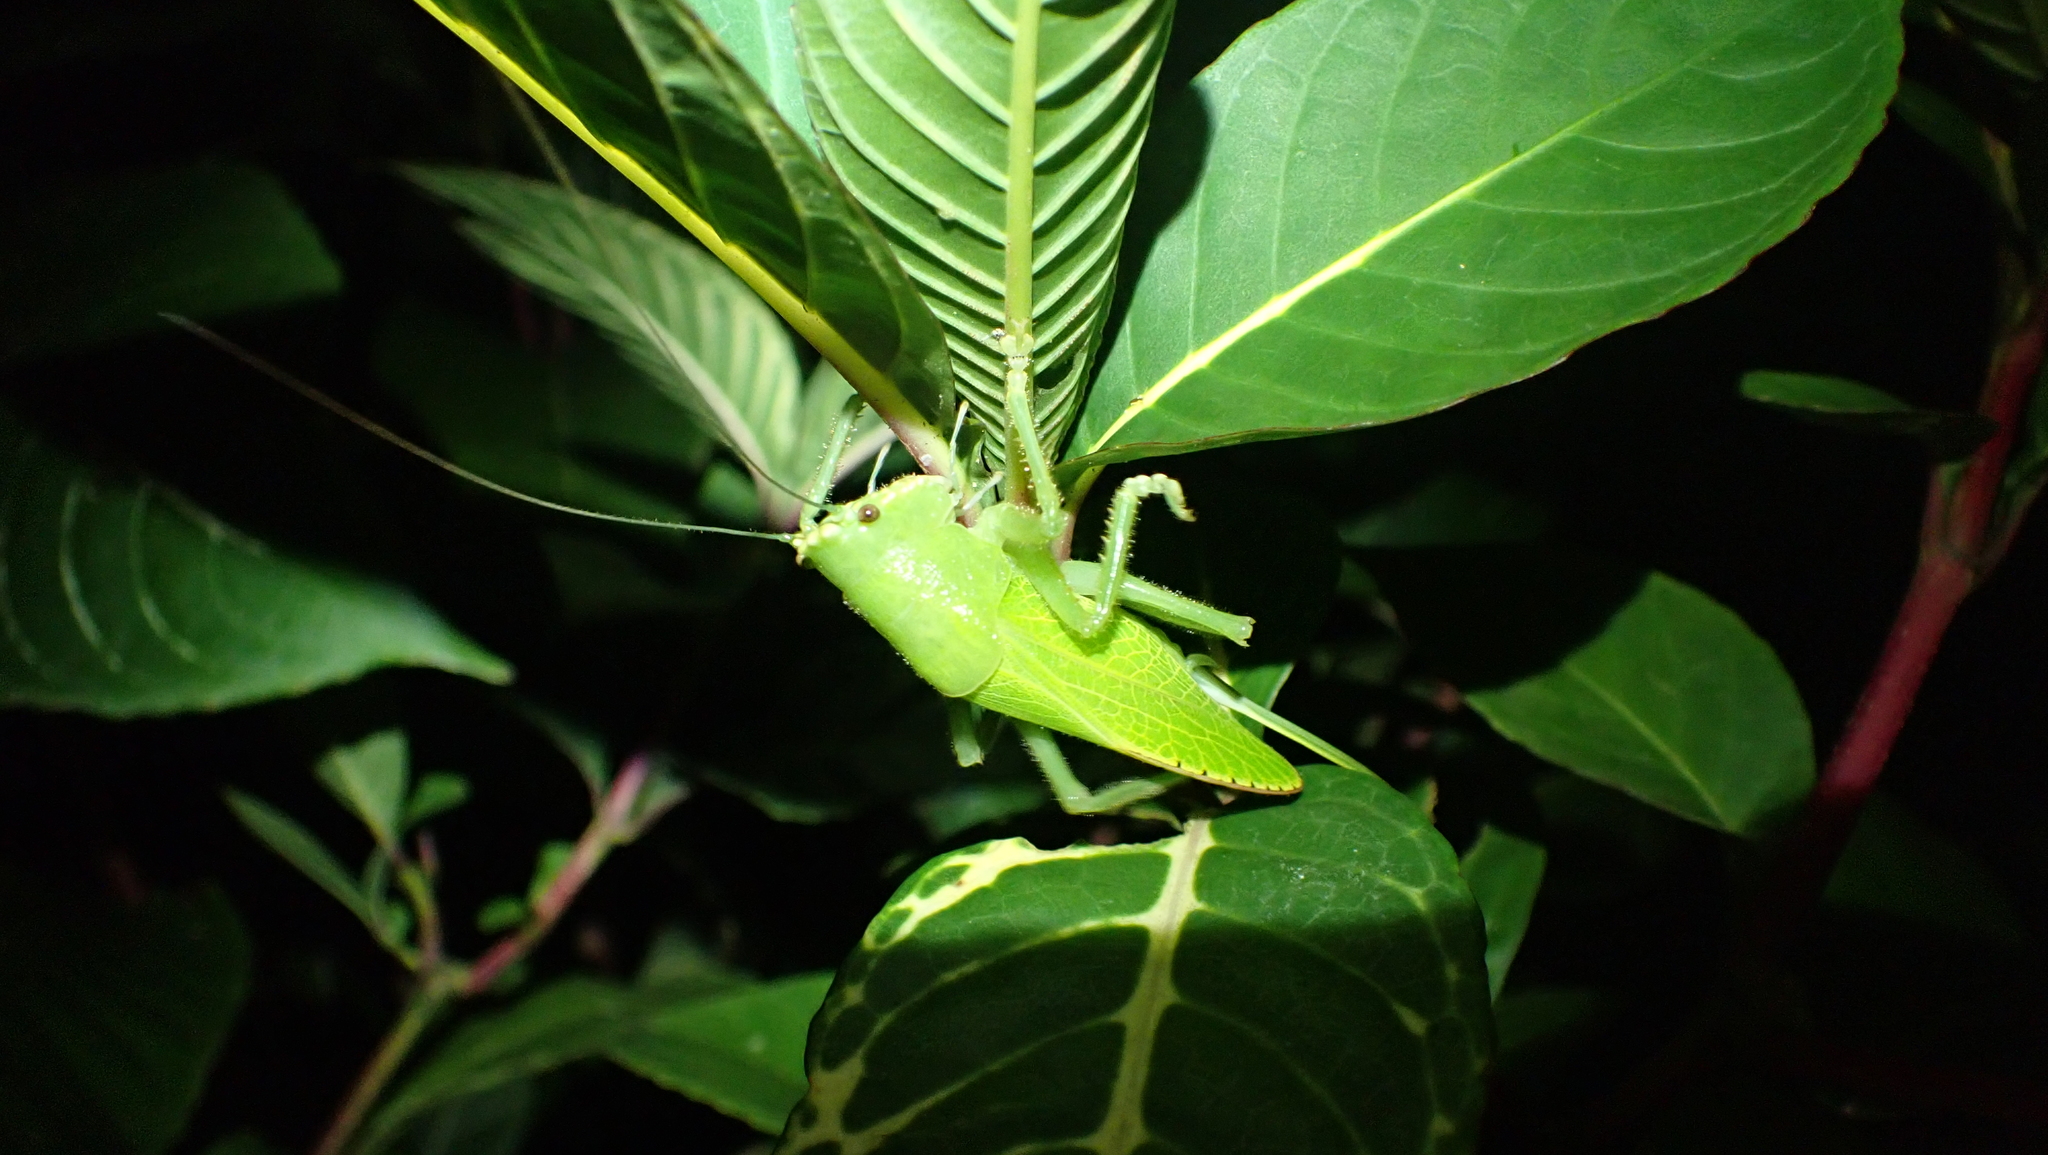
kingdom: Animalia
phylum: Arthropoda
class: Insecta
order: Orthoptera
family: Tettigoniidae
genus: Lirometopum
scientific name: Lirometopum coronatum
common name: Pitbull katydid
